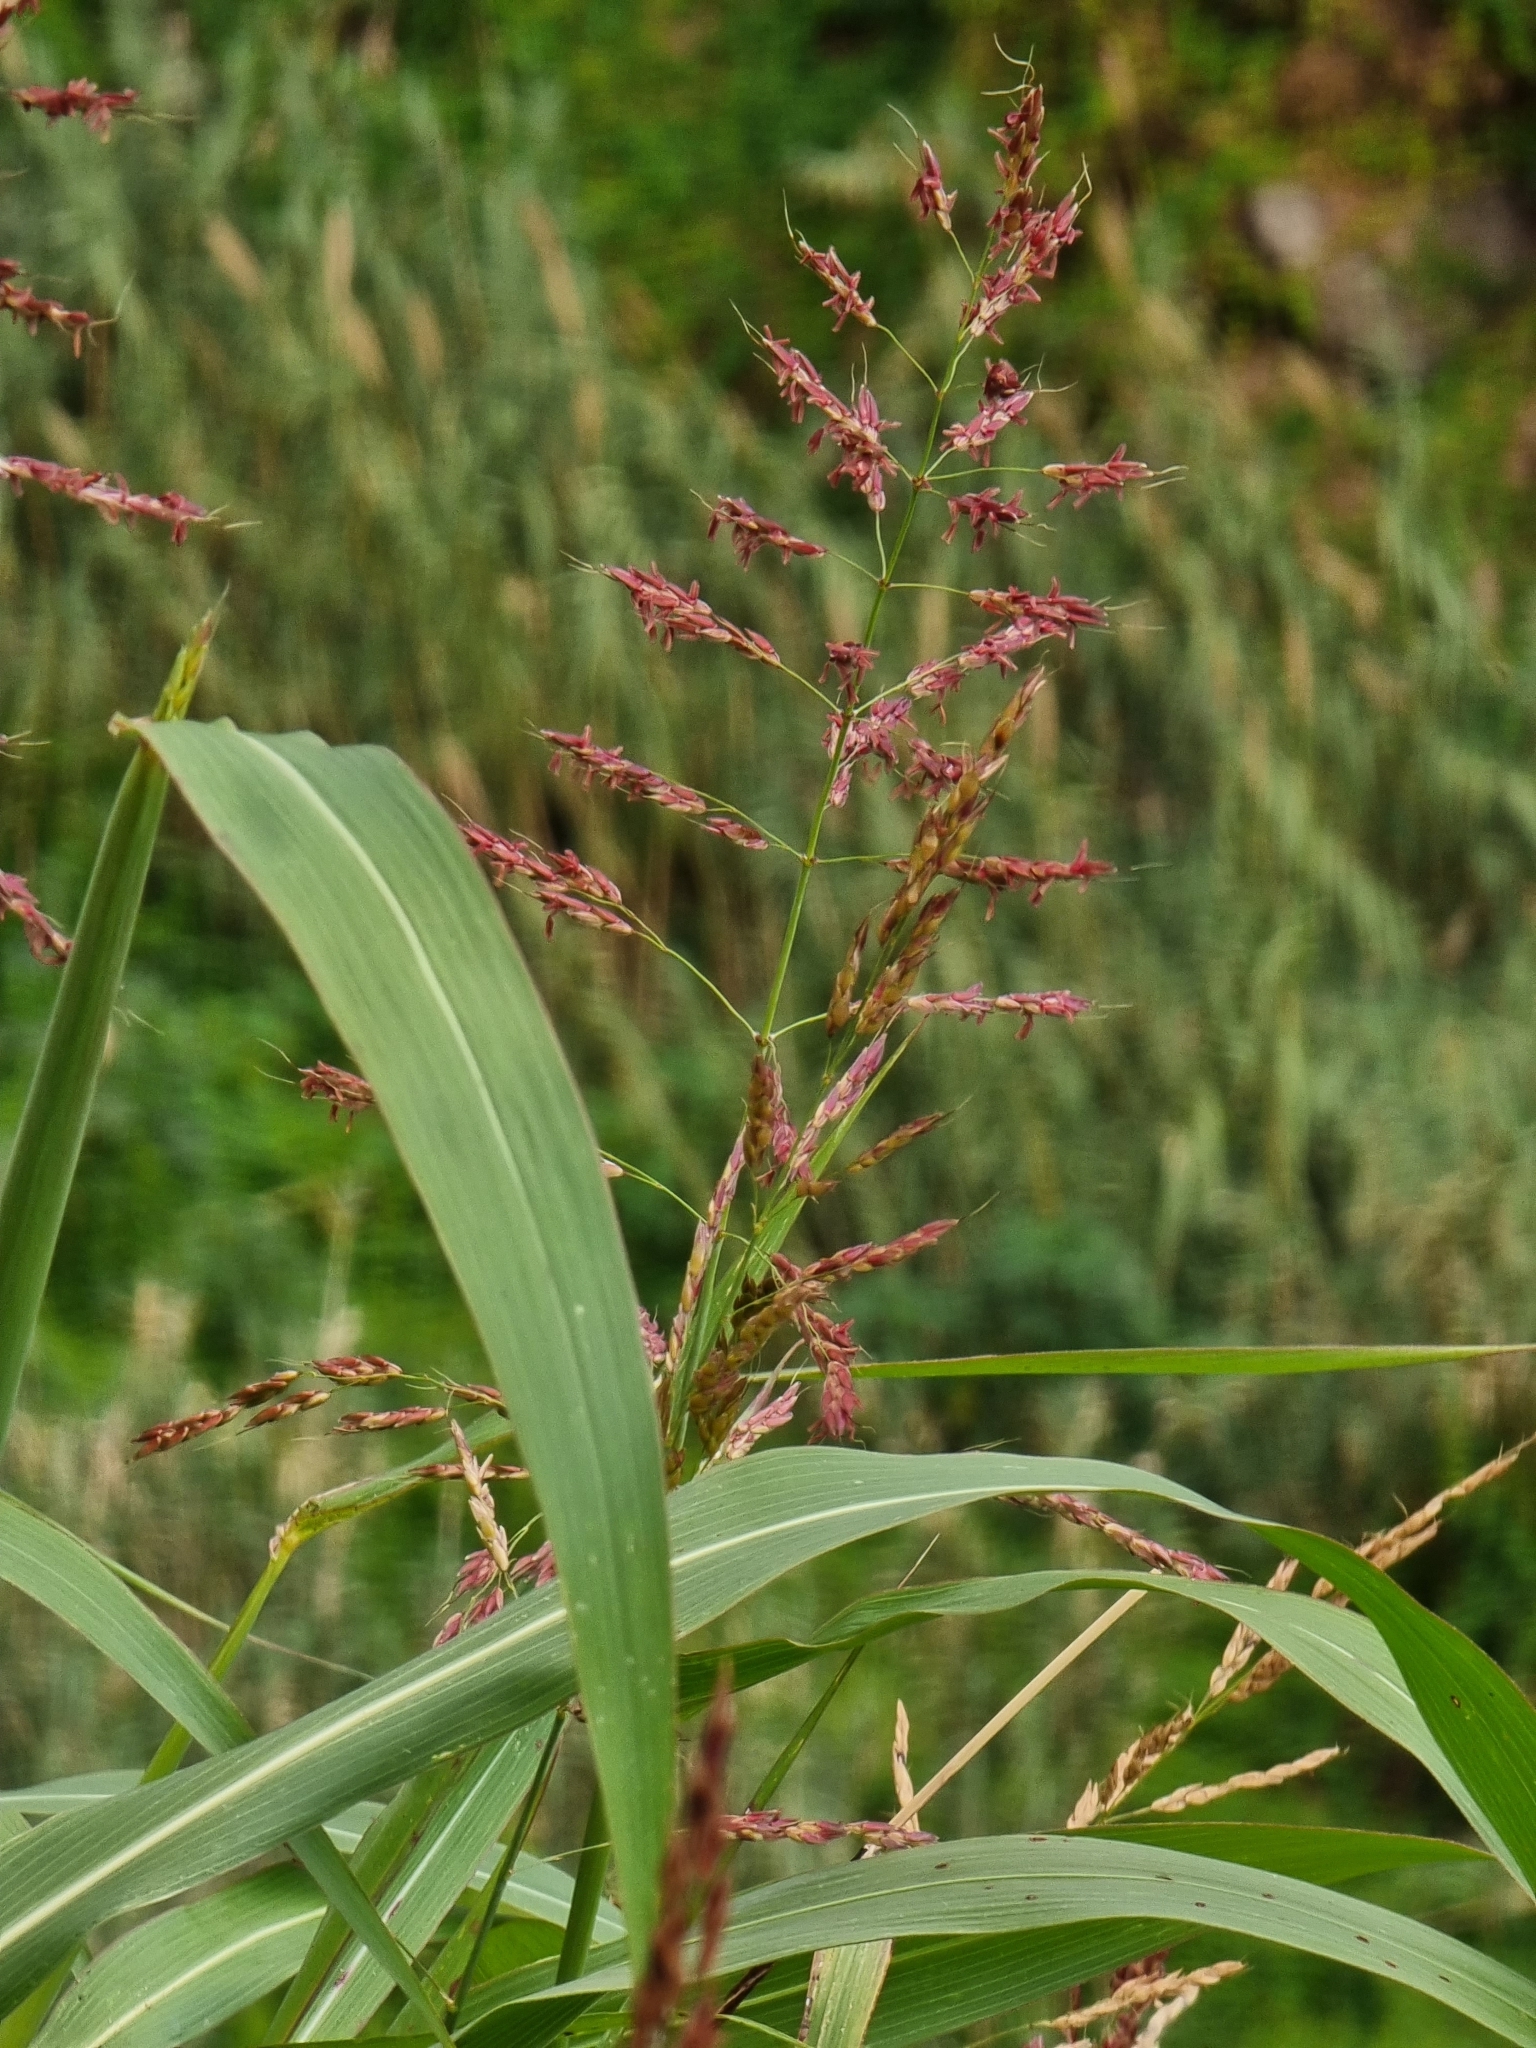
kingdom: Plantae
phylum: Tracheophyta
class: Liliopsida
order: Poales
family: Poaceae
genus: Sorghum
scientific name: Sorghum halepense
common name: Johnson-grass
